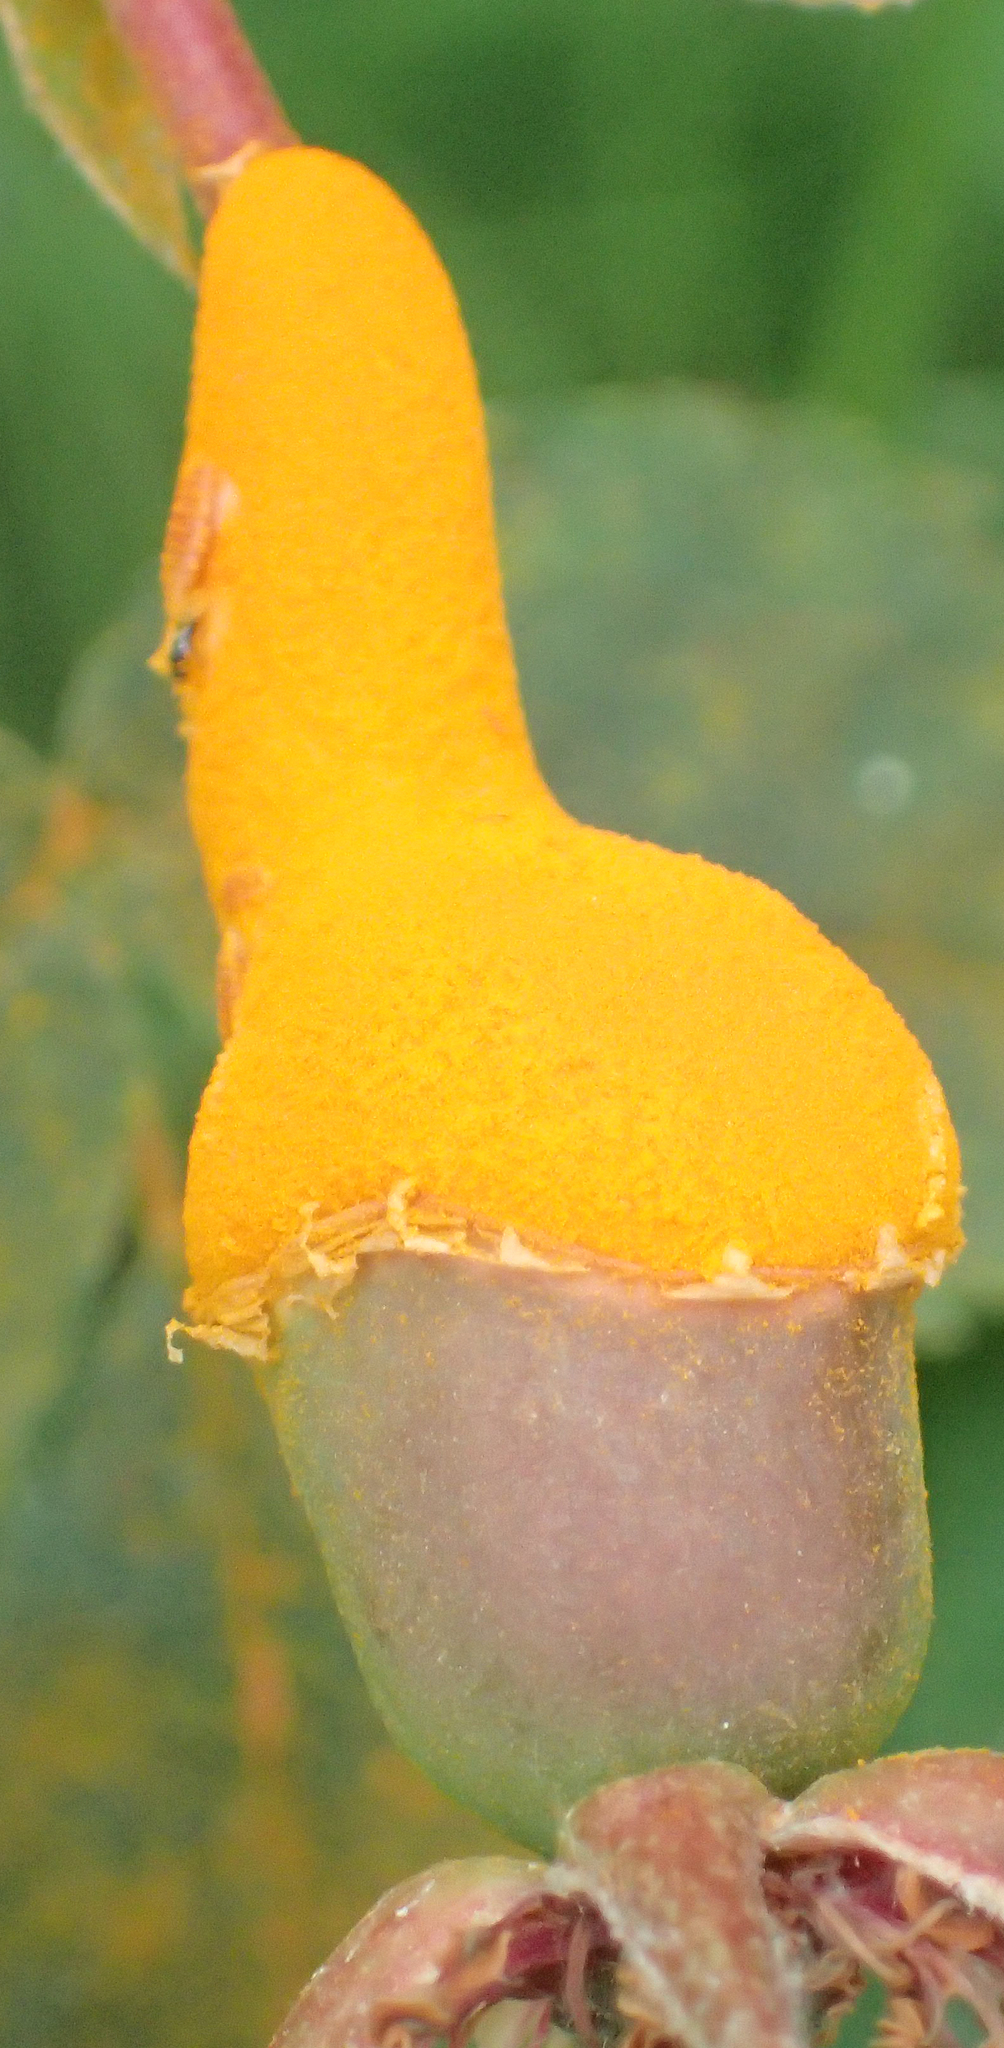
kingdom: Fungi
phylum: Basidiomycota
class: Pucciniomycetes
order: Pucciniales
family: Phragmidiaceae
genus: Phragmidium
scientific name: Phragmidium mucronatum
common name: Rose rust
